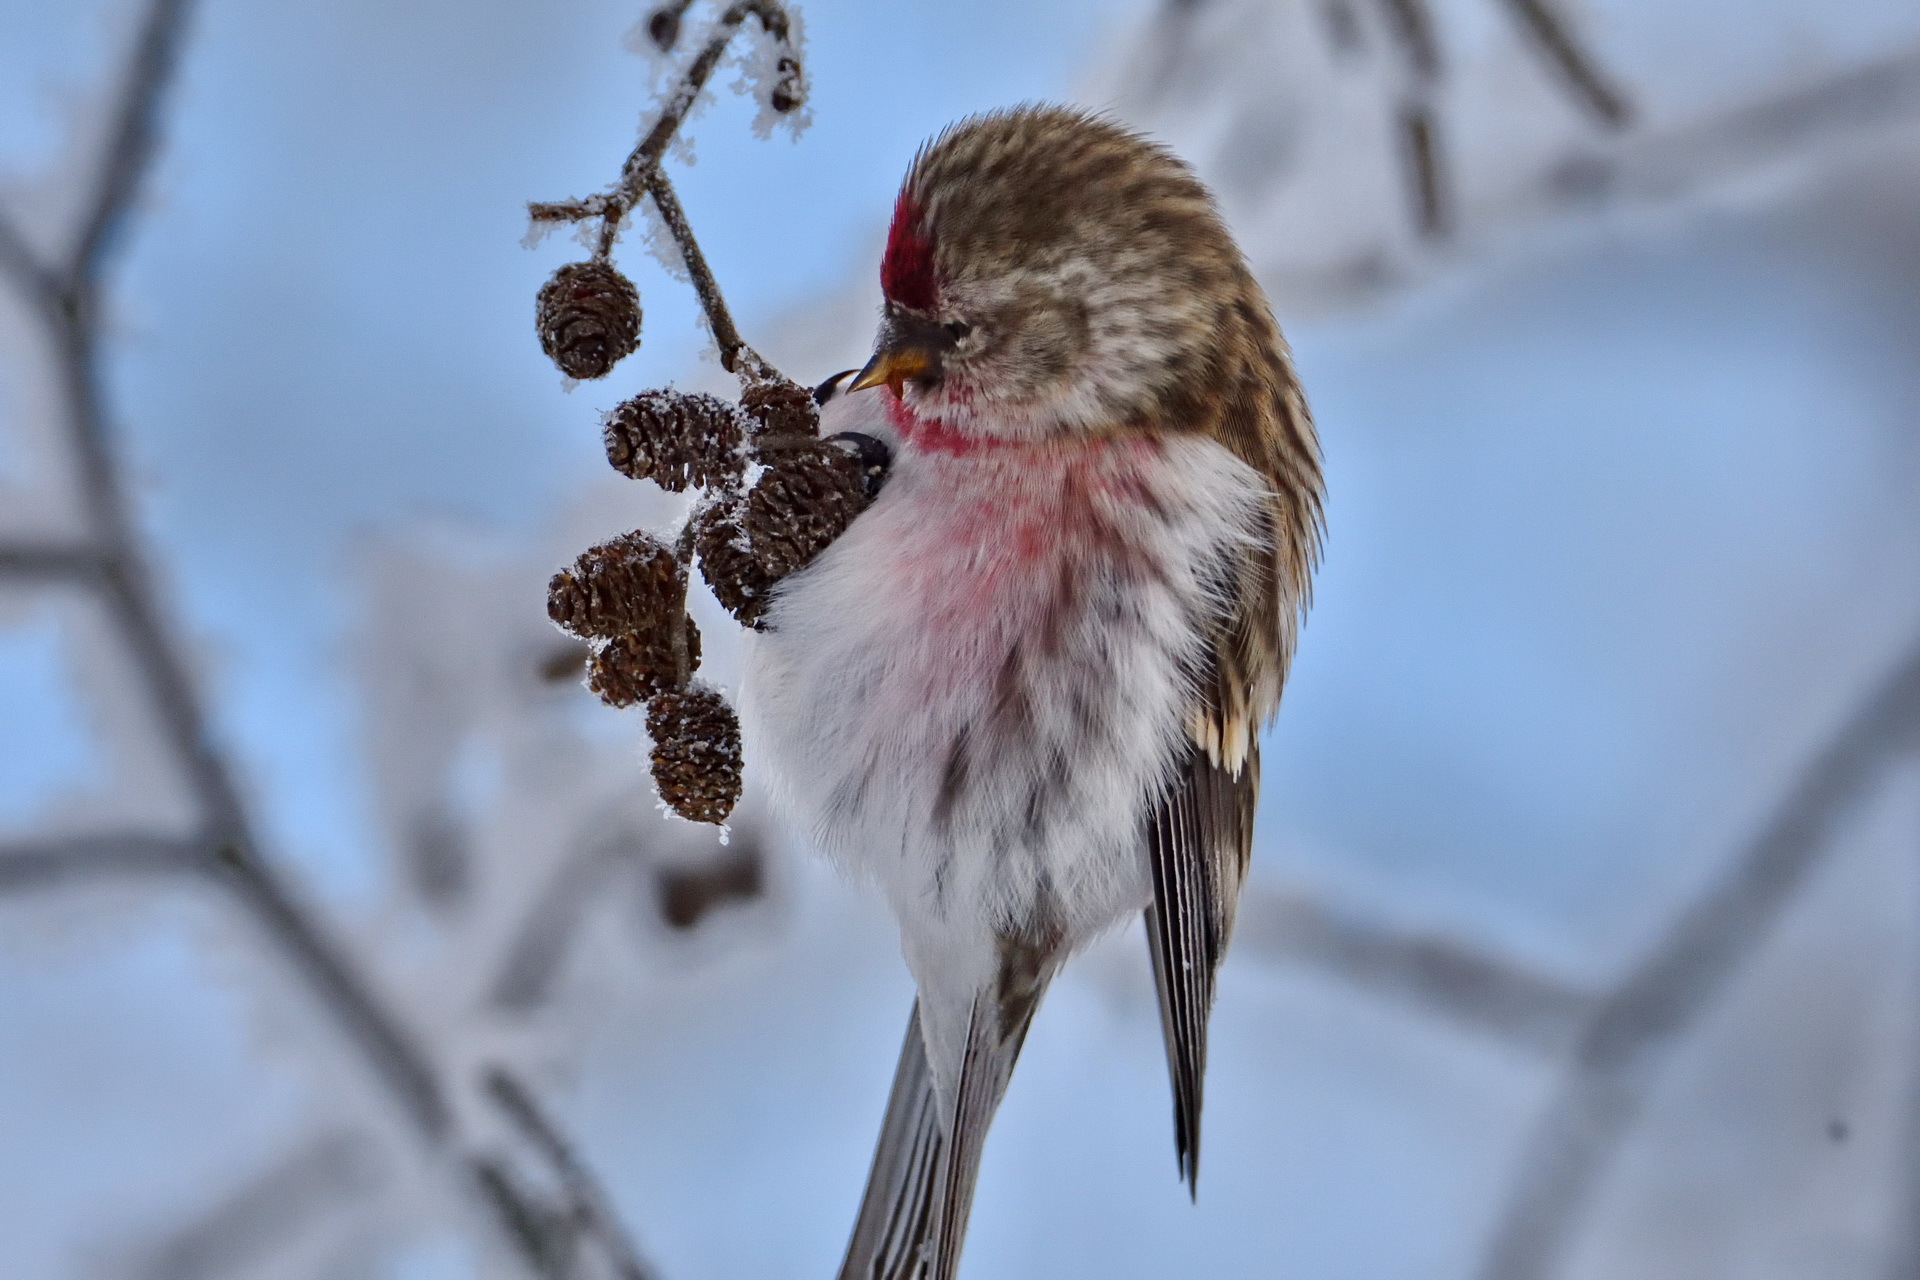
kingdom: Animalia
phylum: Chordata
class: Aves
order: Passeriformes
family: Fringillidae
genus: Acanthis
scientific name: Acanthis flammea
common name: Common redpoll
